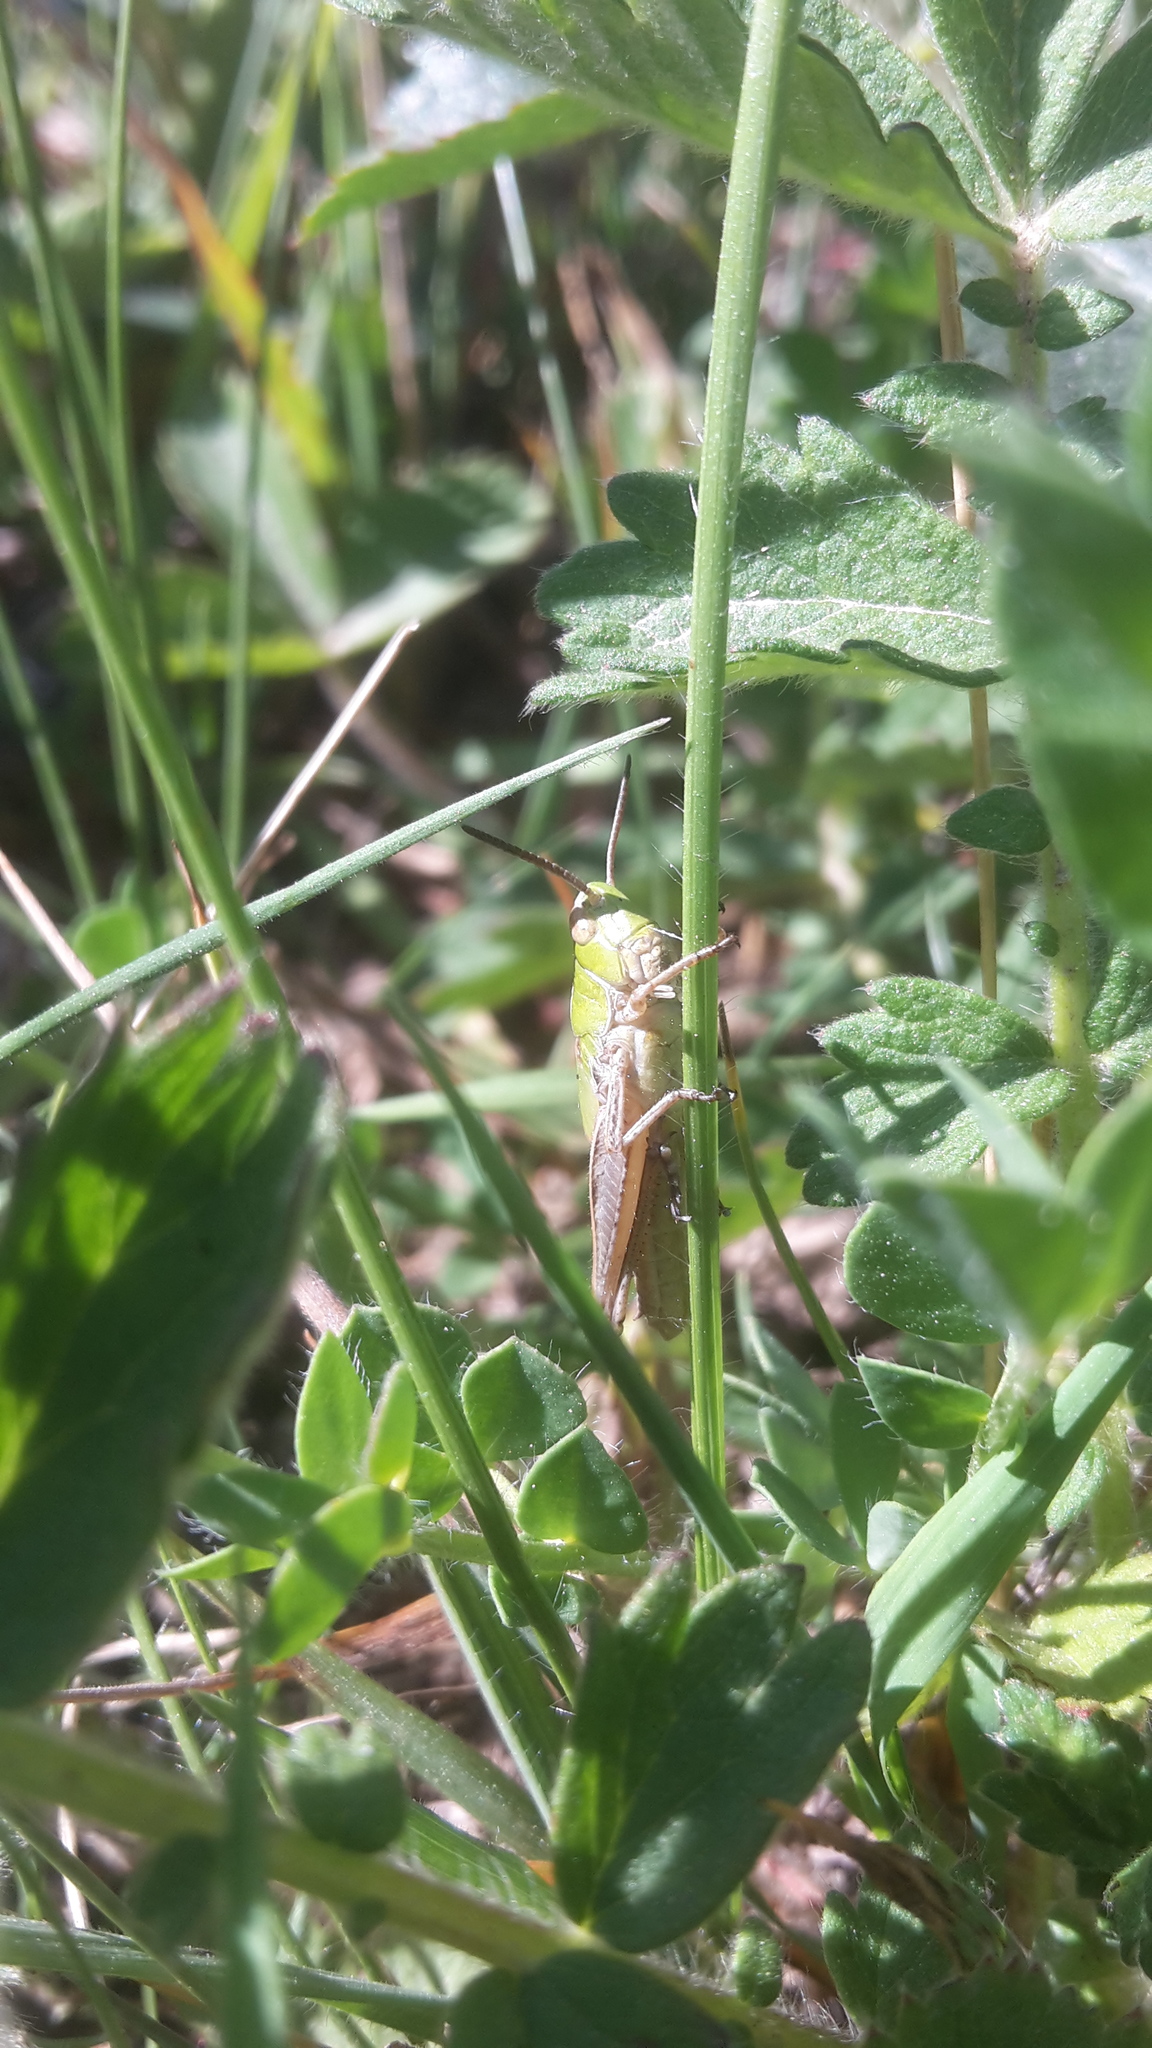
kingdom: Animalia
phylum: Arthropoda
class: Insecta
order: Orthoptera
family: Acrididae
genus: Stenobothrus
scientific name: Stenobothrus lineatus
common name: Stripe-winged grasshopper
